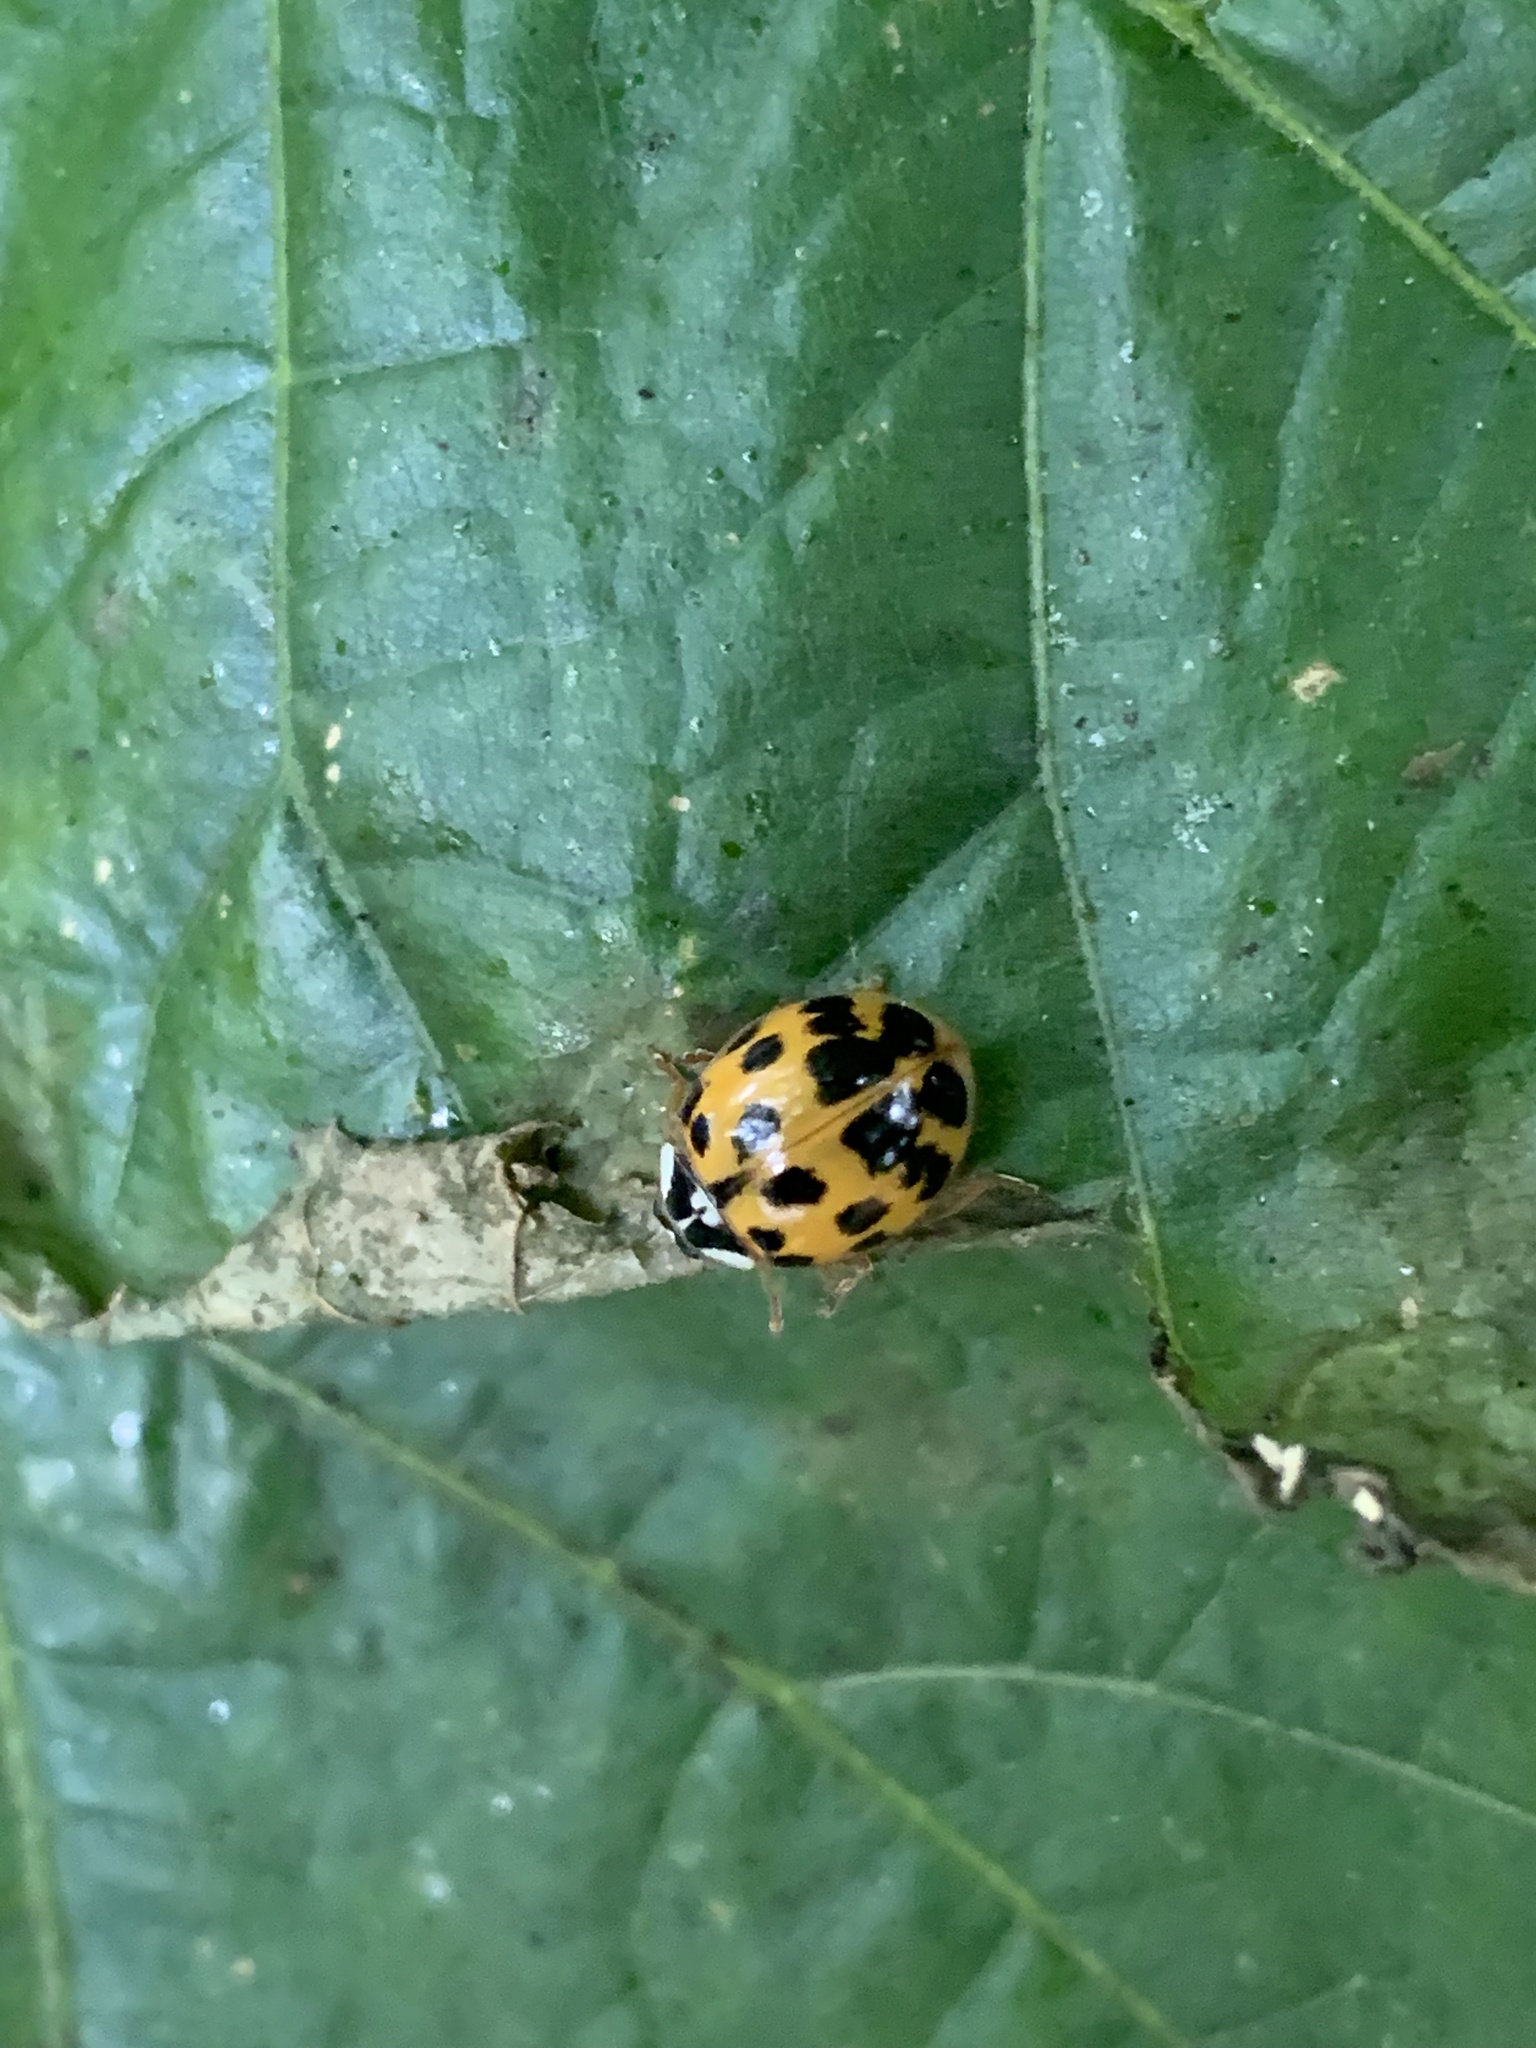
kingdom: Animalia
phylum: Arthropoda
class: Insecta
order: Coleoptera
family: Coccinellidae
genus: Harmonia
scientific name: Harmonia axyridis
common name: Harlequin ladybird
